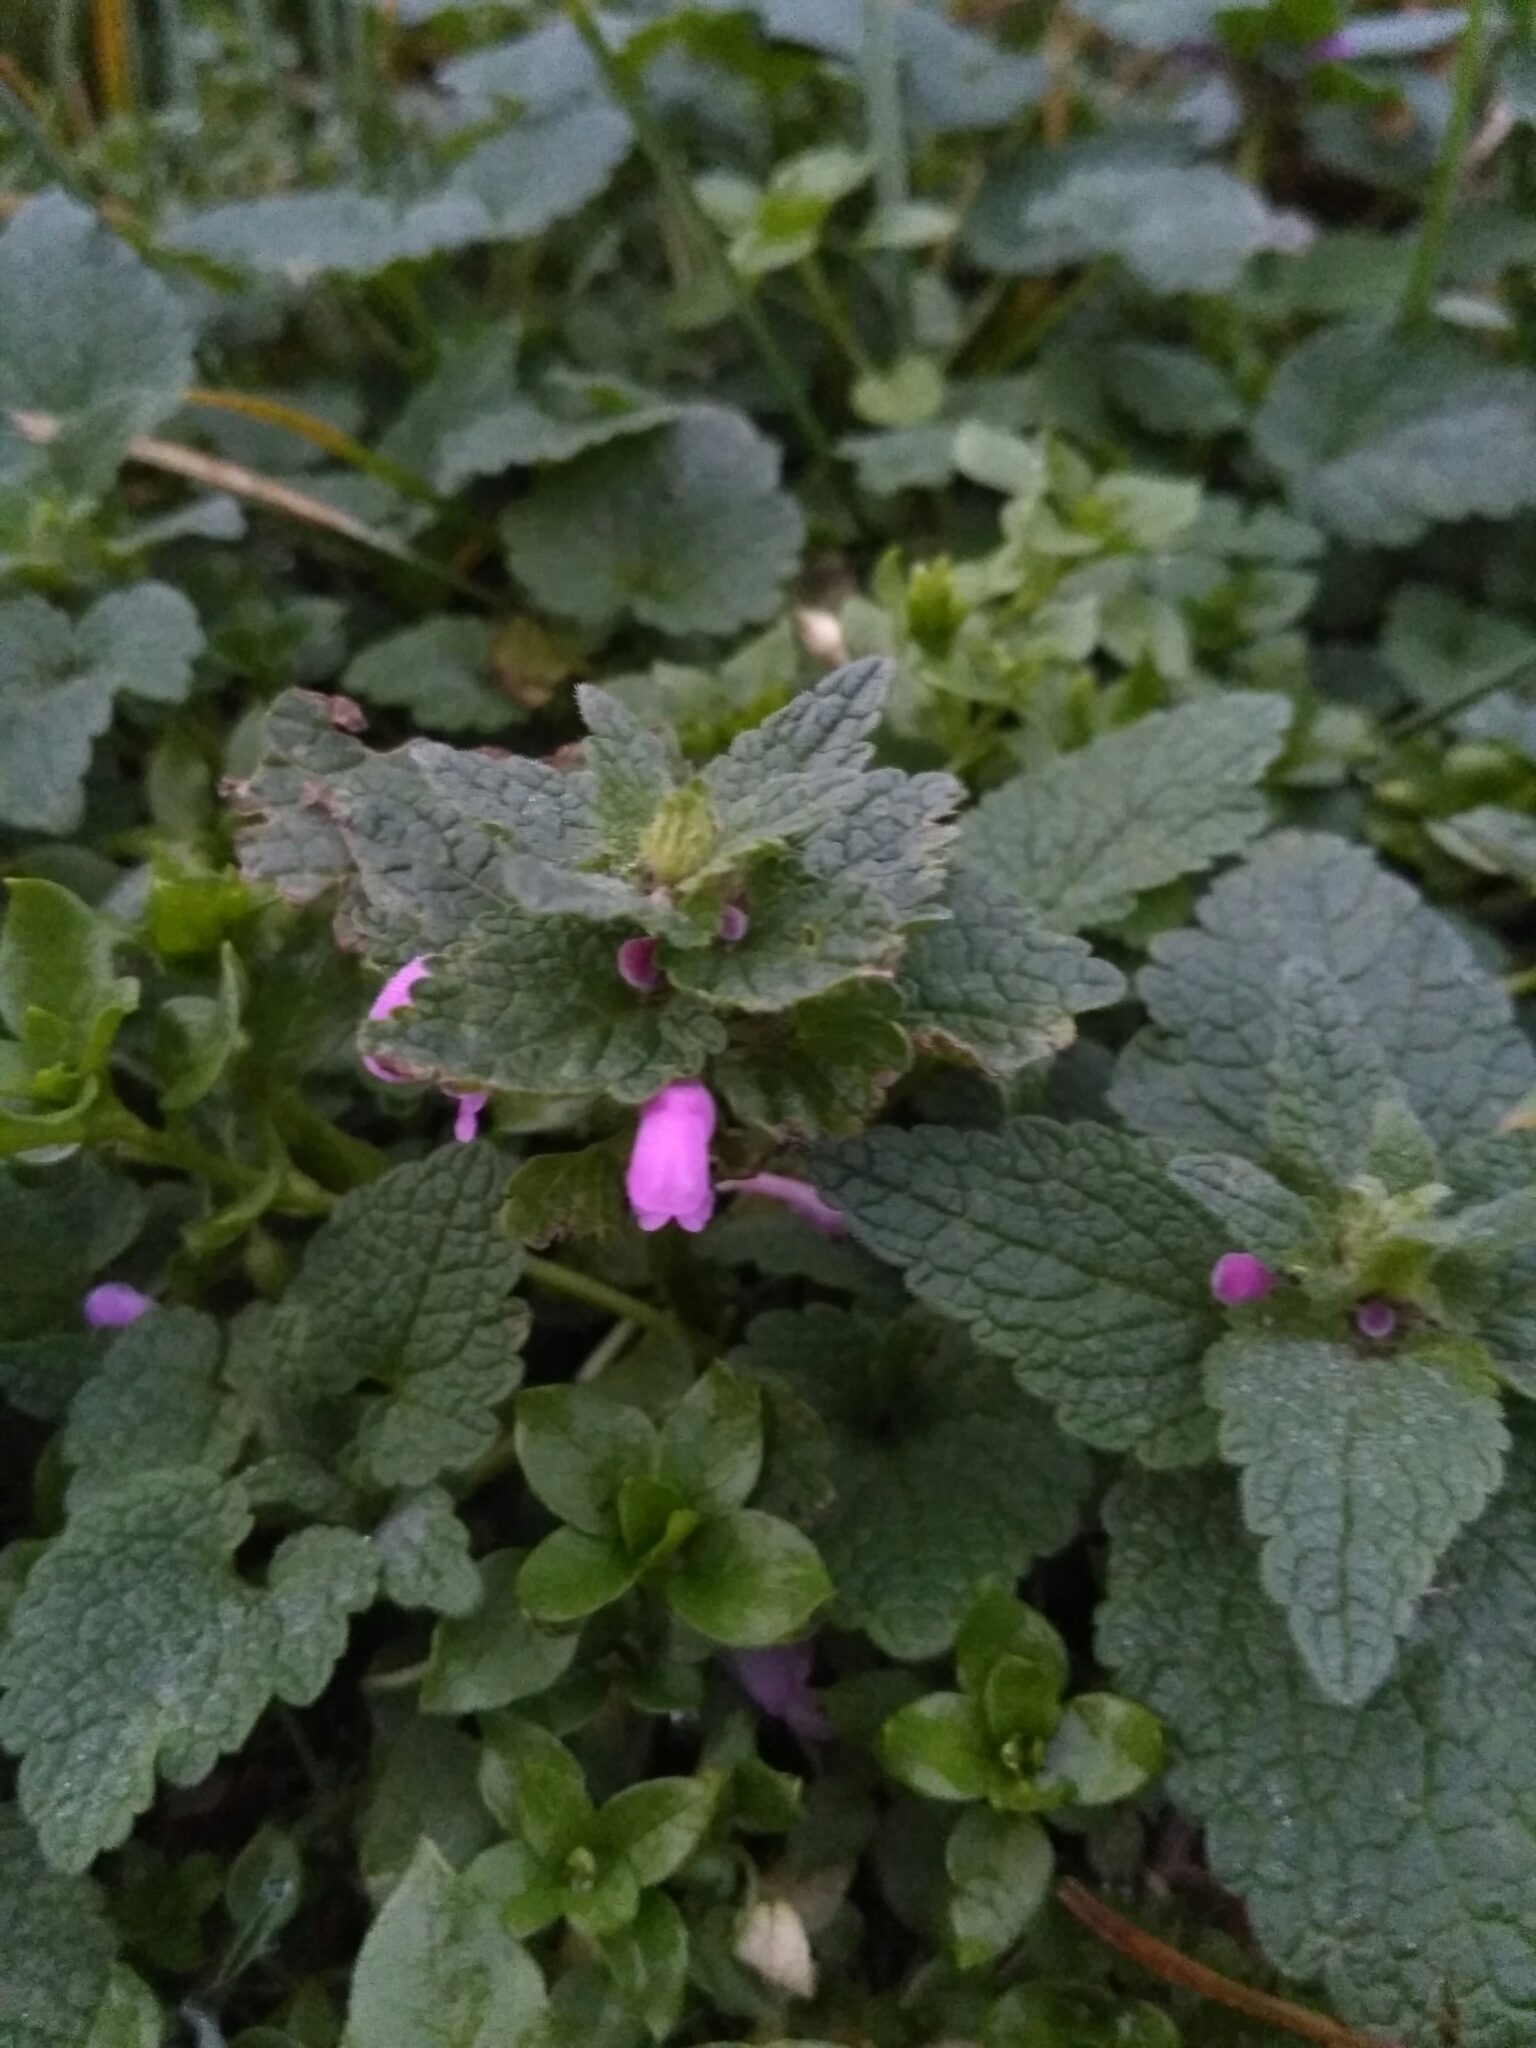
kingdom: Plantae
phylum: Tracheophyta
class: Magnoliopsida
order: Lamiales
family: Lamiaceae
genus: Lamium
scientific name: Lamium purpureum
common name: Red dead-nettle
